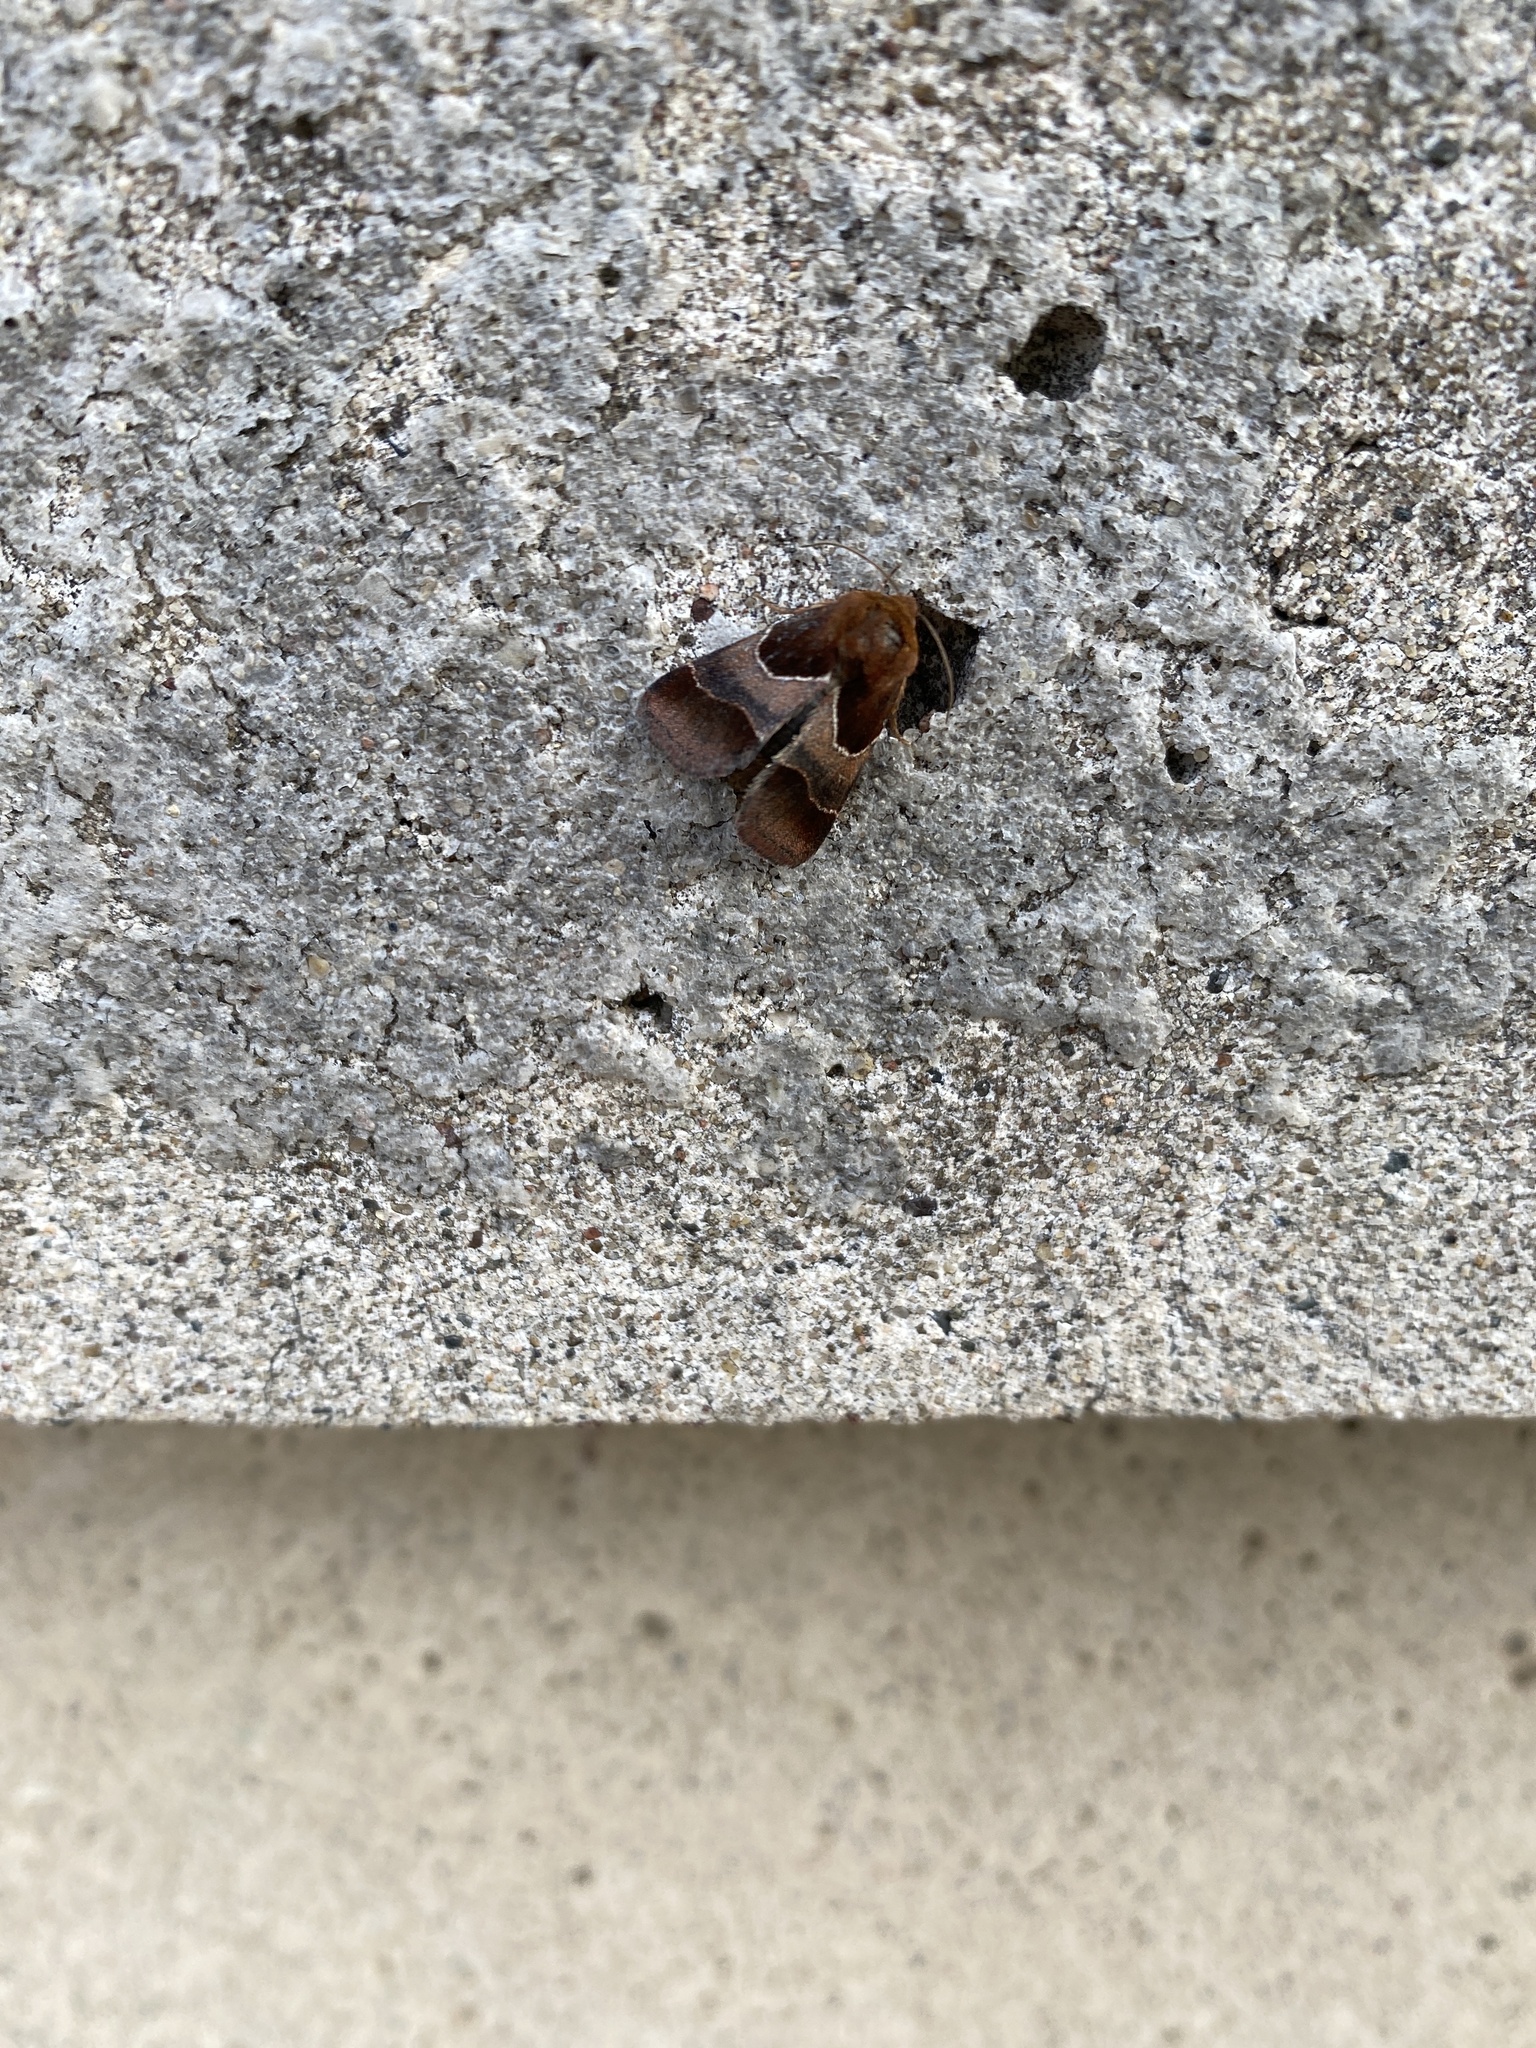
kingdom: Animalia
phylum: Arthropoda
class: Insecta
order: Lepidoptera
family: Noctuidae
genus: Schinia
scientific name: Schinia arcigera
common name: Arcigera flower moth
